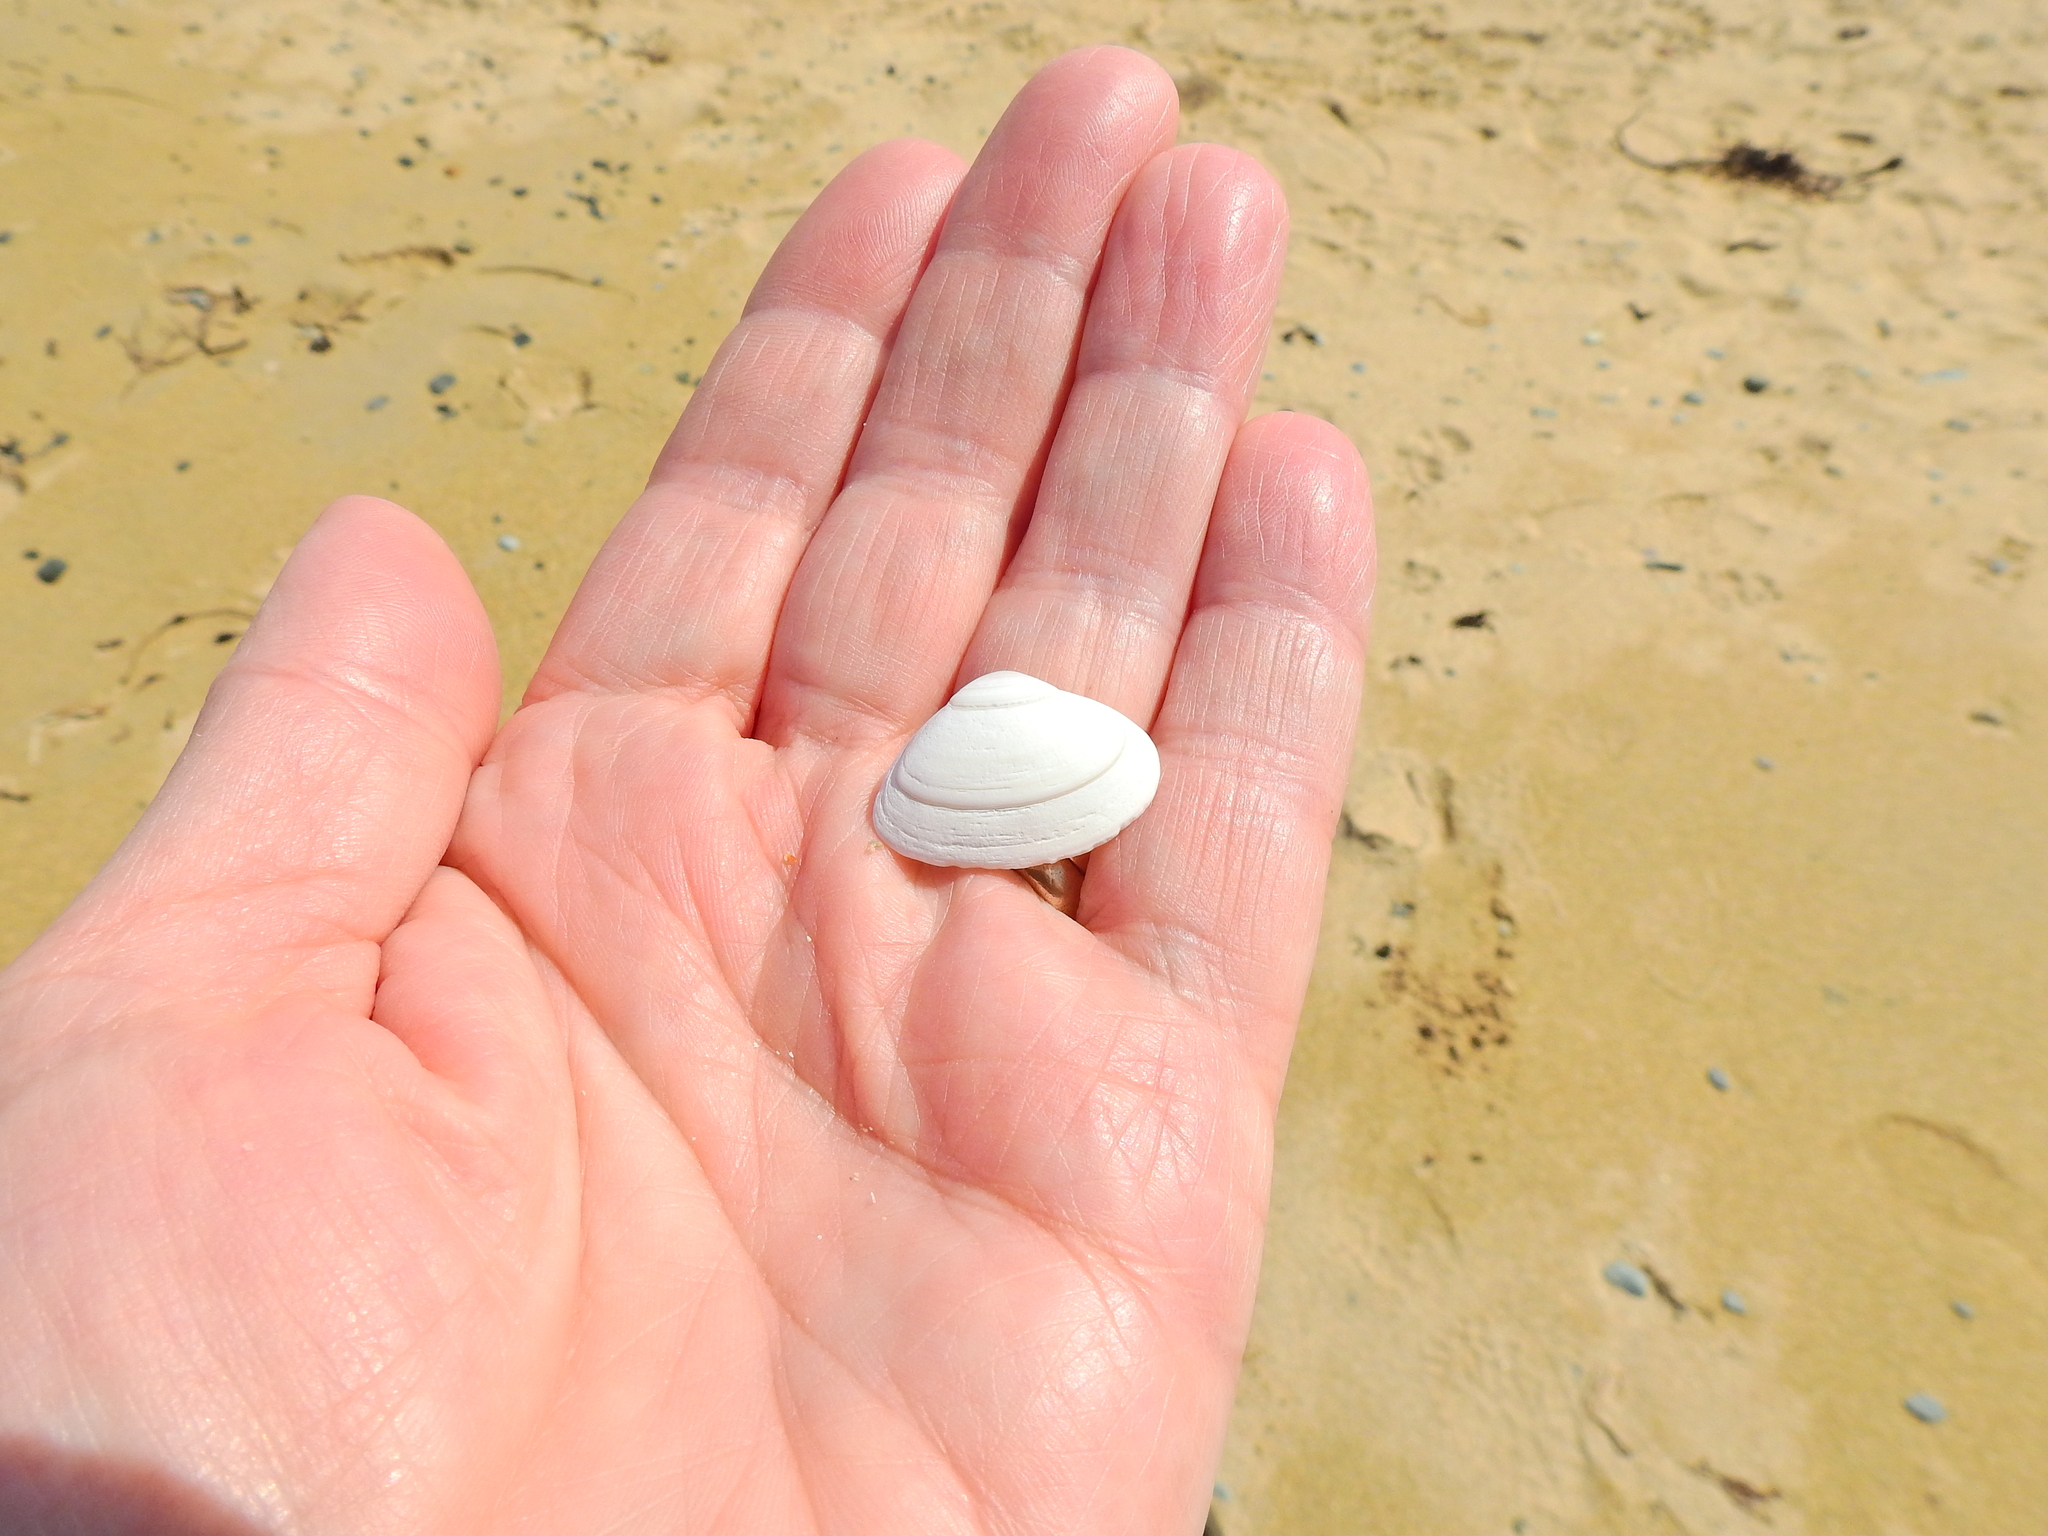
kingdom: Animalia
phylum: Mollusca
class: Bivalvia
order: Venerida
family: Mactridae
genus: Spisula
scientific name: Spisula solida
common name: Thick trough shell
